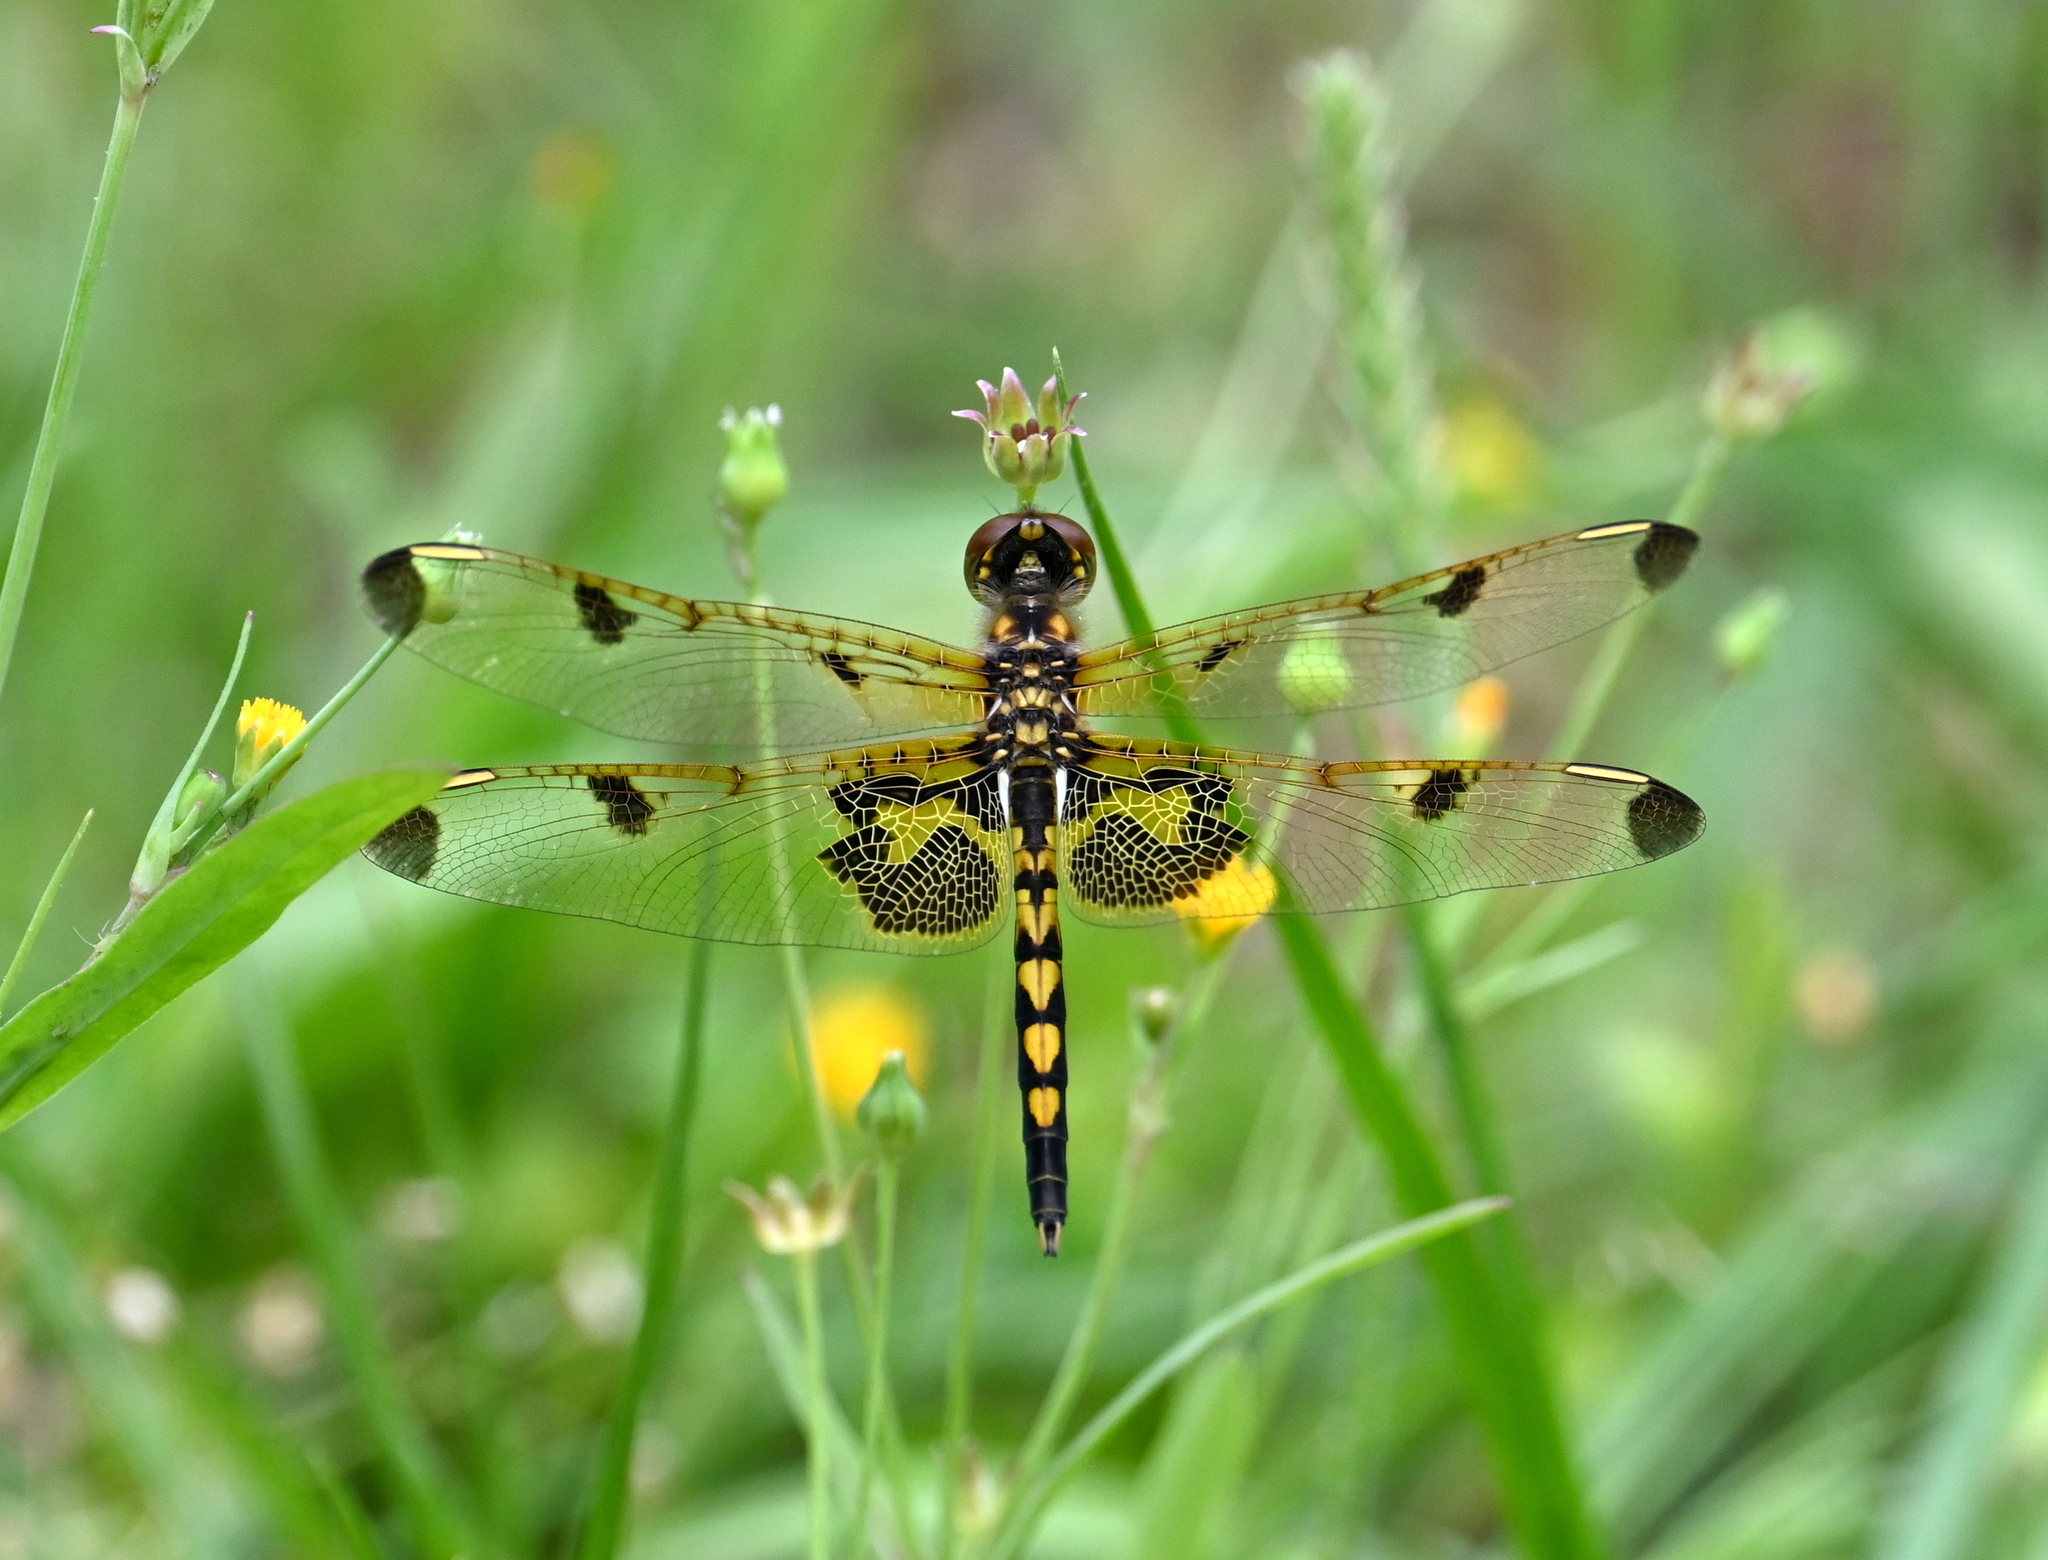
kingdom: Animalia
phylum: Arthropoda
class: Insecta
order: Odonata
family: Libellulidae
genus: Celithemis
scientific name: Celithemis elisa
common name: Calico pennant
